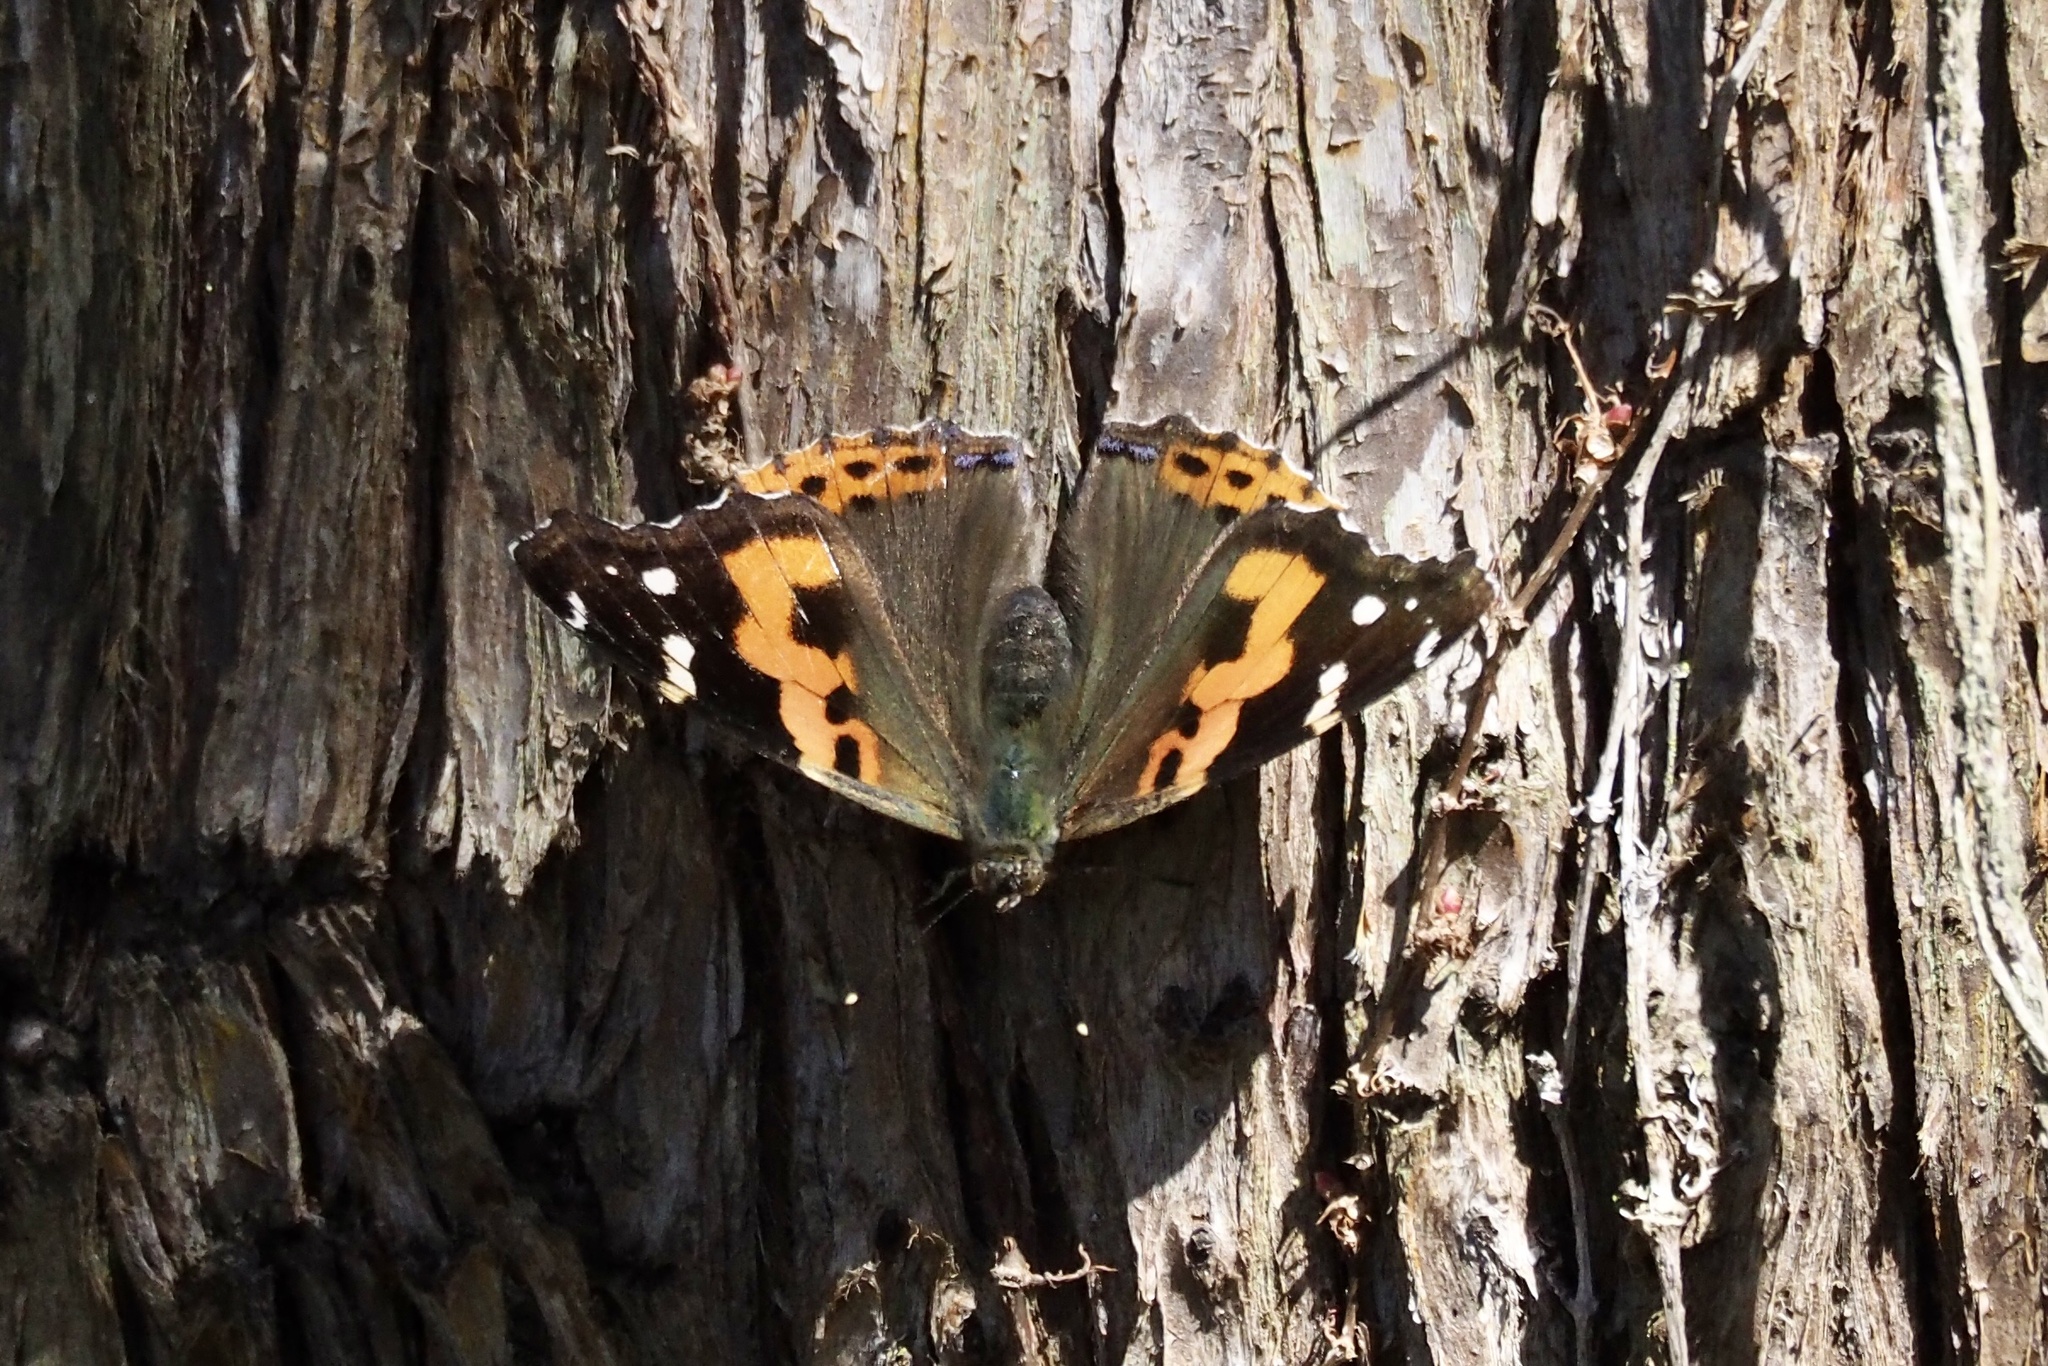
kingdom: Animalia
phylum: Arthropoda
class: Insecta
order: Lepidoptera
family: Nymphalidae
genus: Vanessa
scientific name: Vanessa indica
